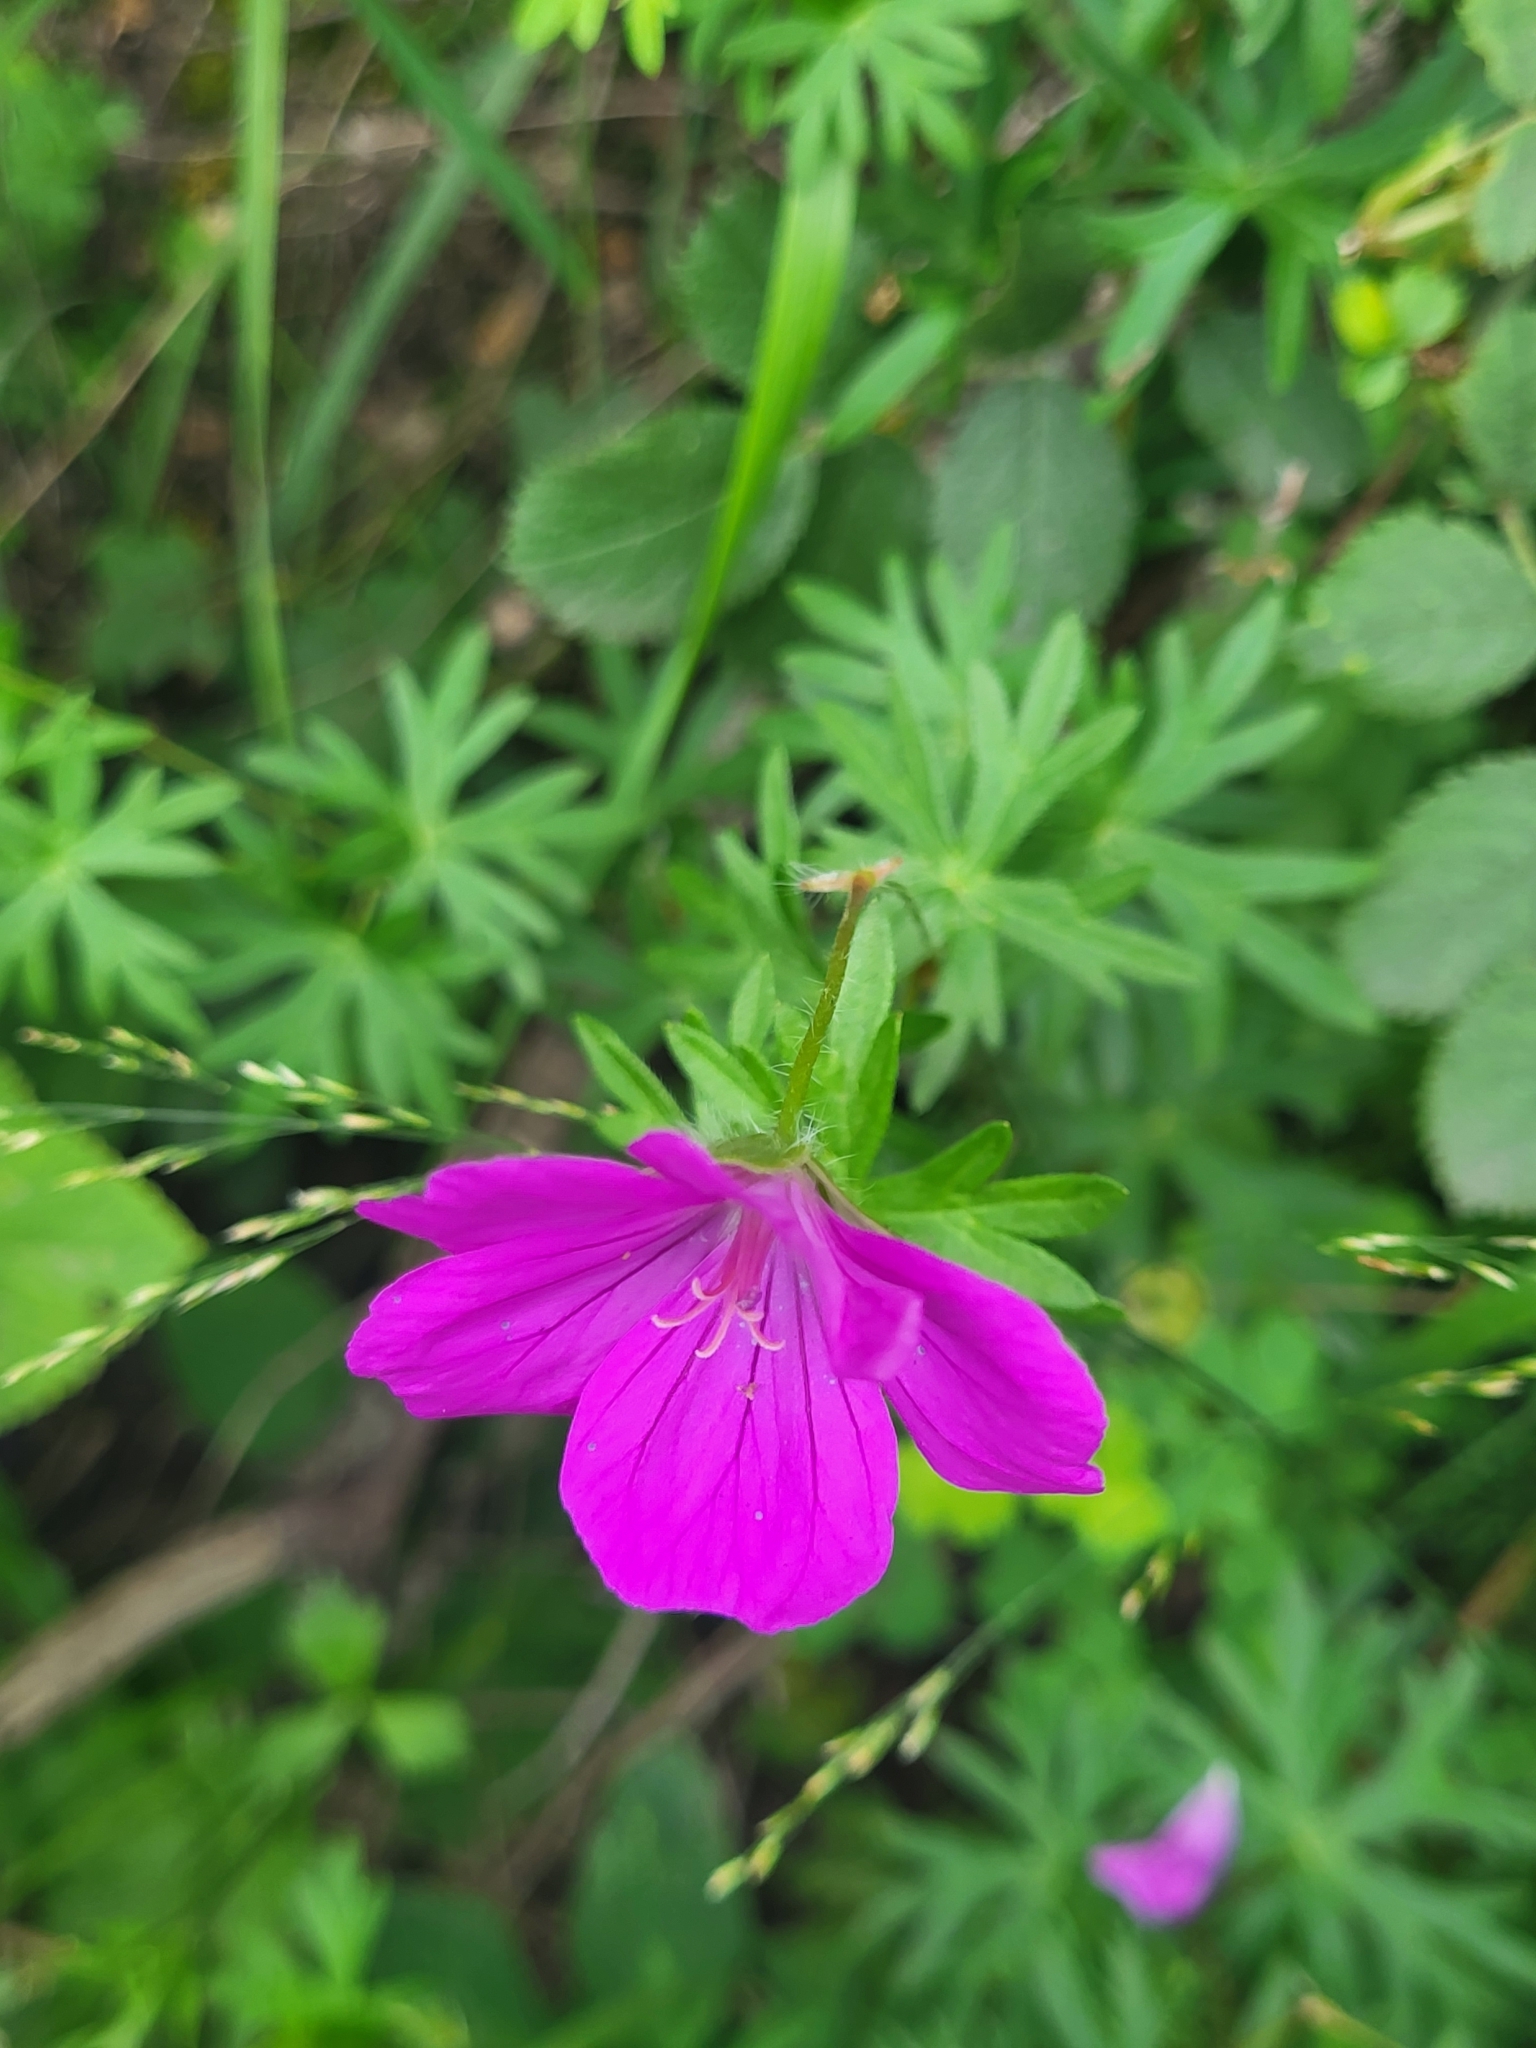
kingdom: Plantae
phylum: Tracheophyta
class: Magnoliopsida
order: Geraniales
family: Geraniaceae
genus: Geranium
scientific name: Geranium sanguineum
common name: Bloody crane's-bill
